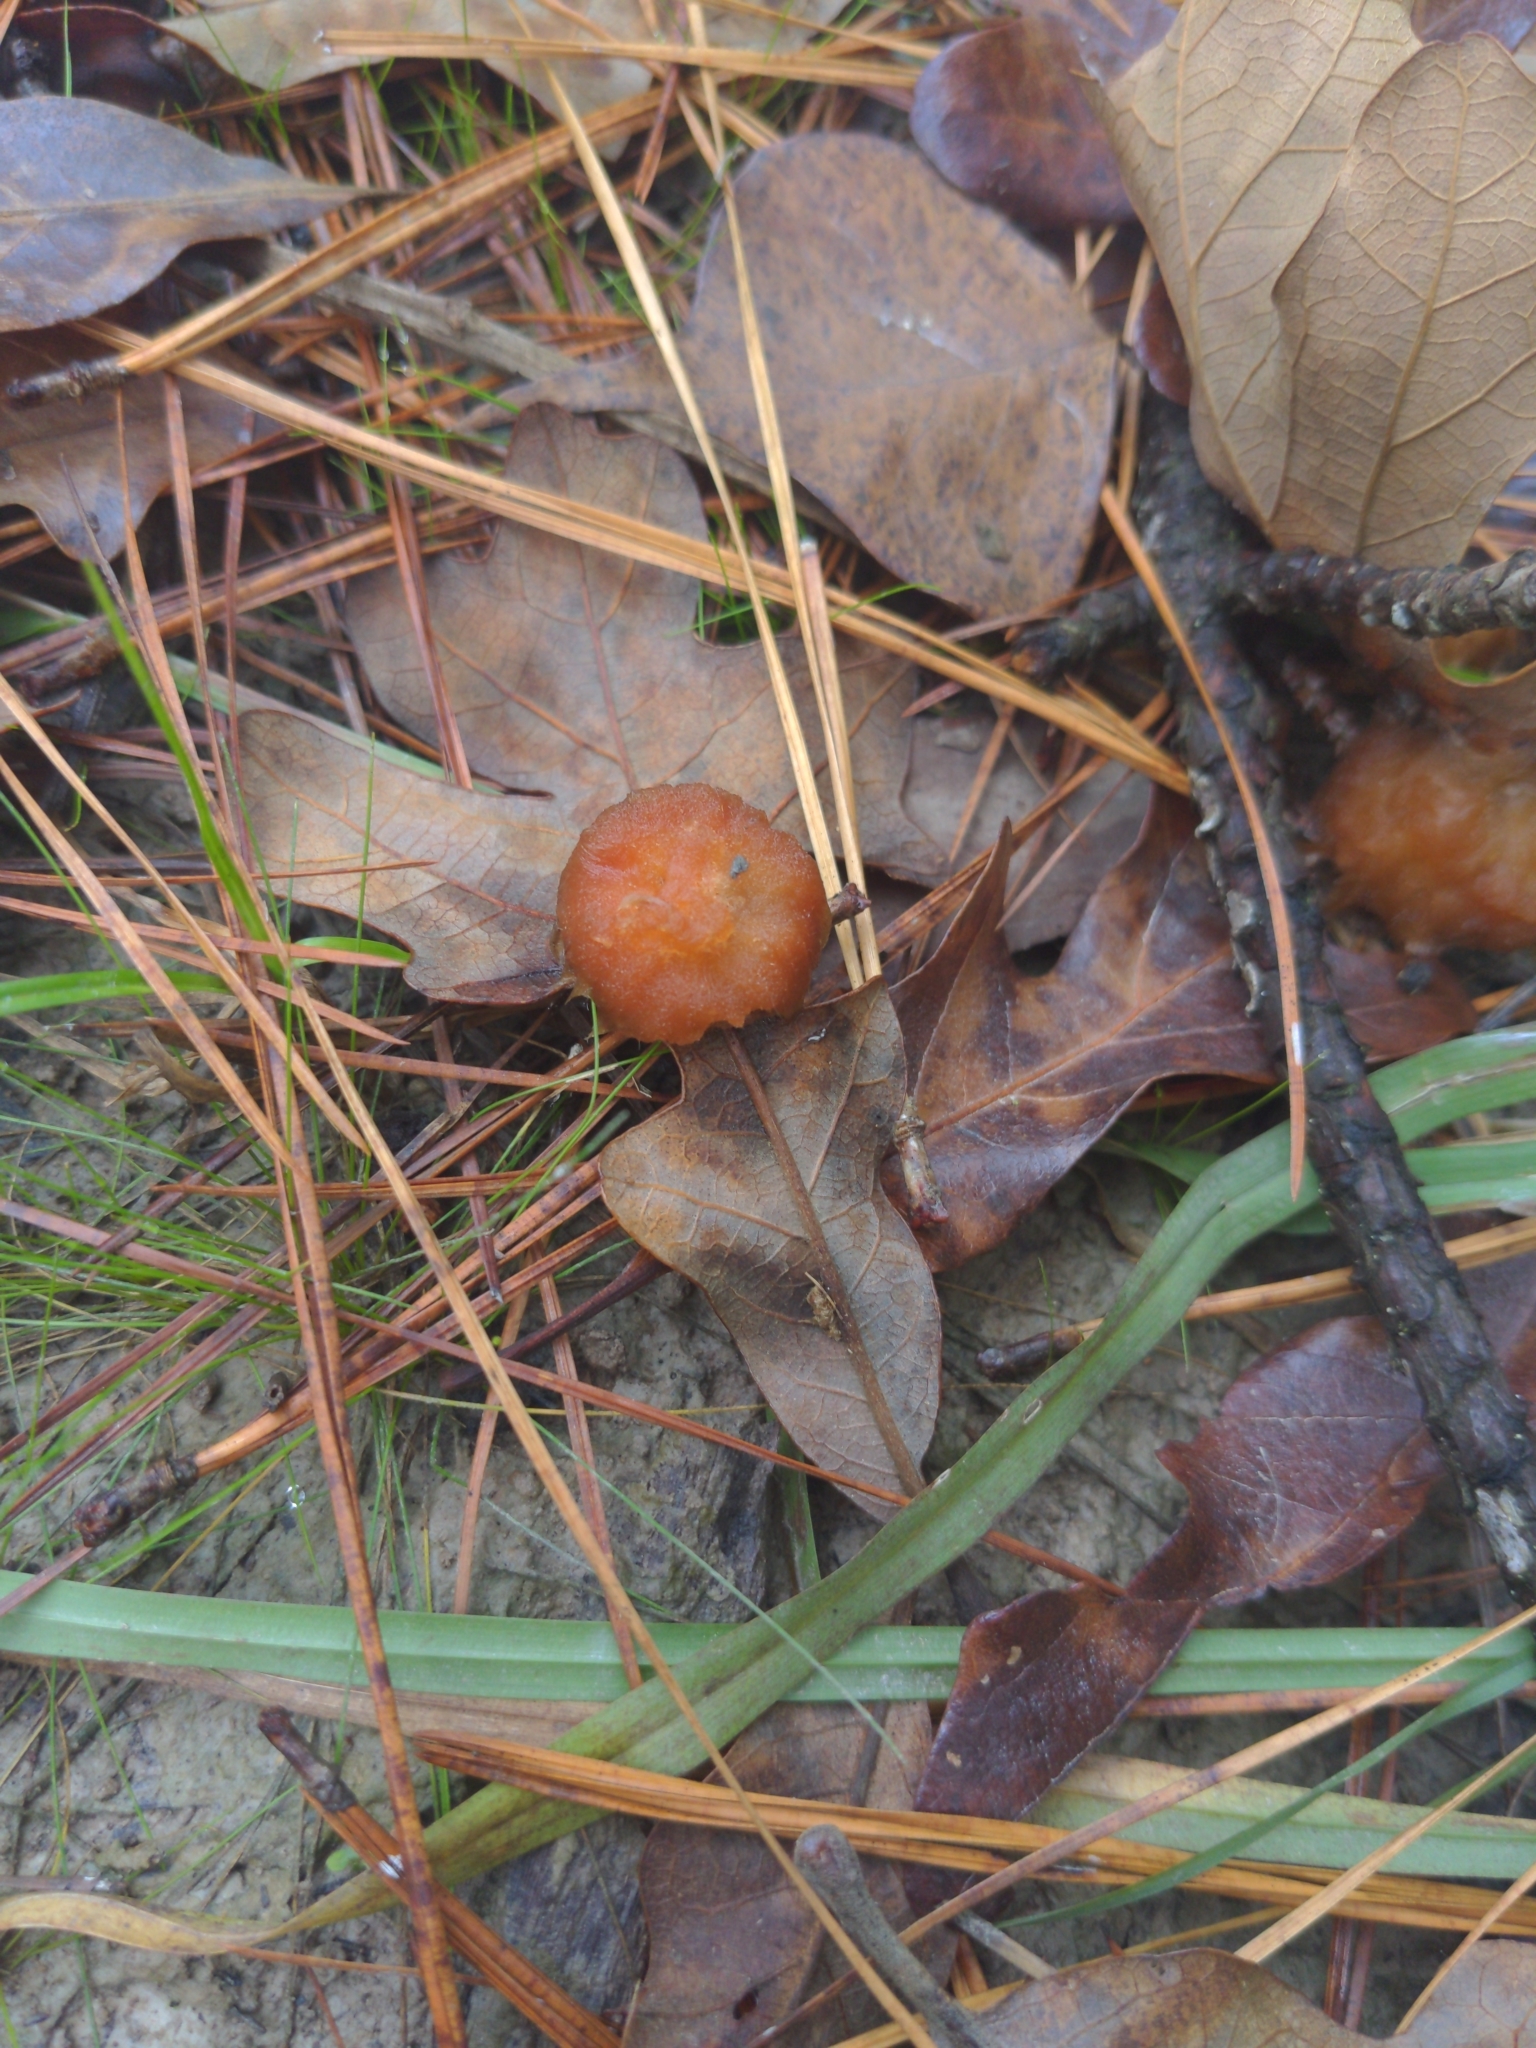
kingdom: Animalia
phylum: Arthropoda
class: Insecta
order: Hymenoptera
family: Cynipidae
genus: Andricus
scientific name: Andricus Druon pattoni
